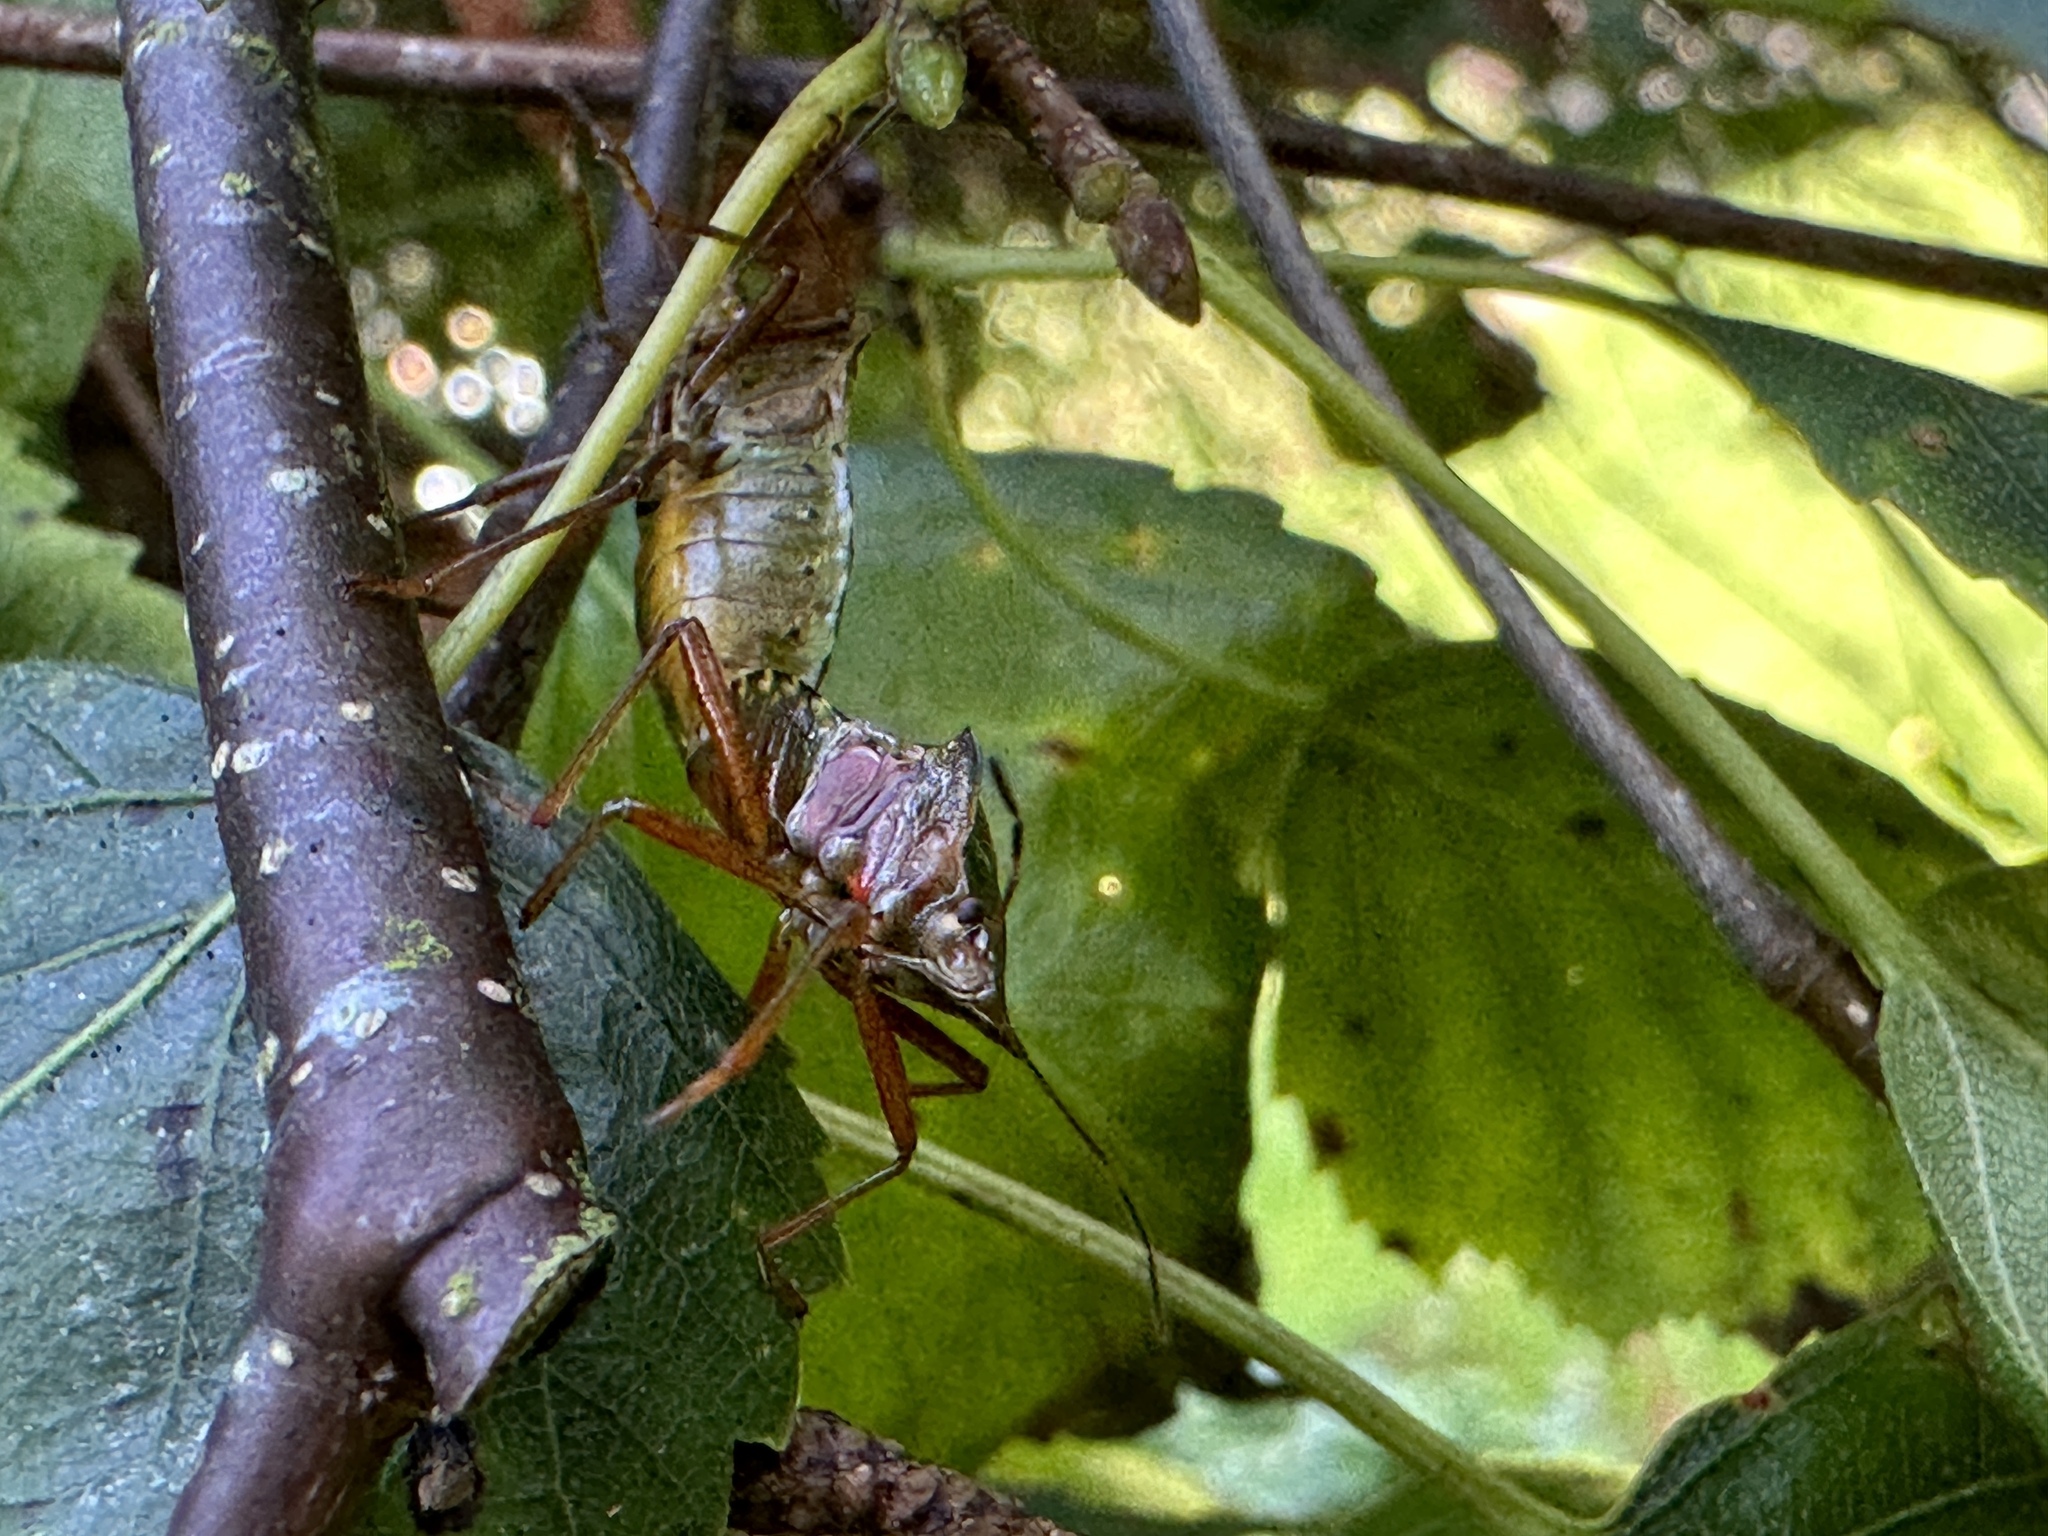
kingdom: Animalia
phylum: Arthropoda
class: Insecta
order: Hemiptera
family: Pentatomidae
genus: Pentatoma
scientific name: Pentatoma rufipes
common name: Forest bug
